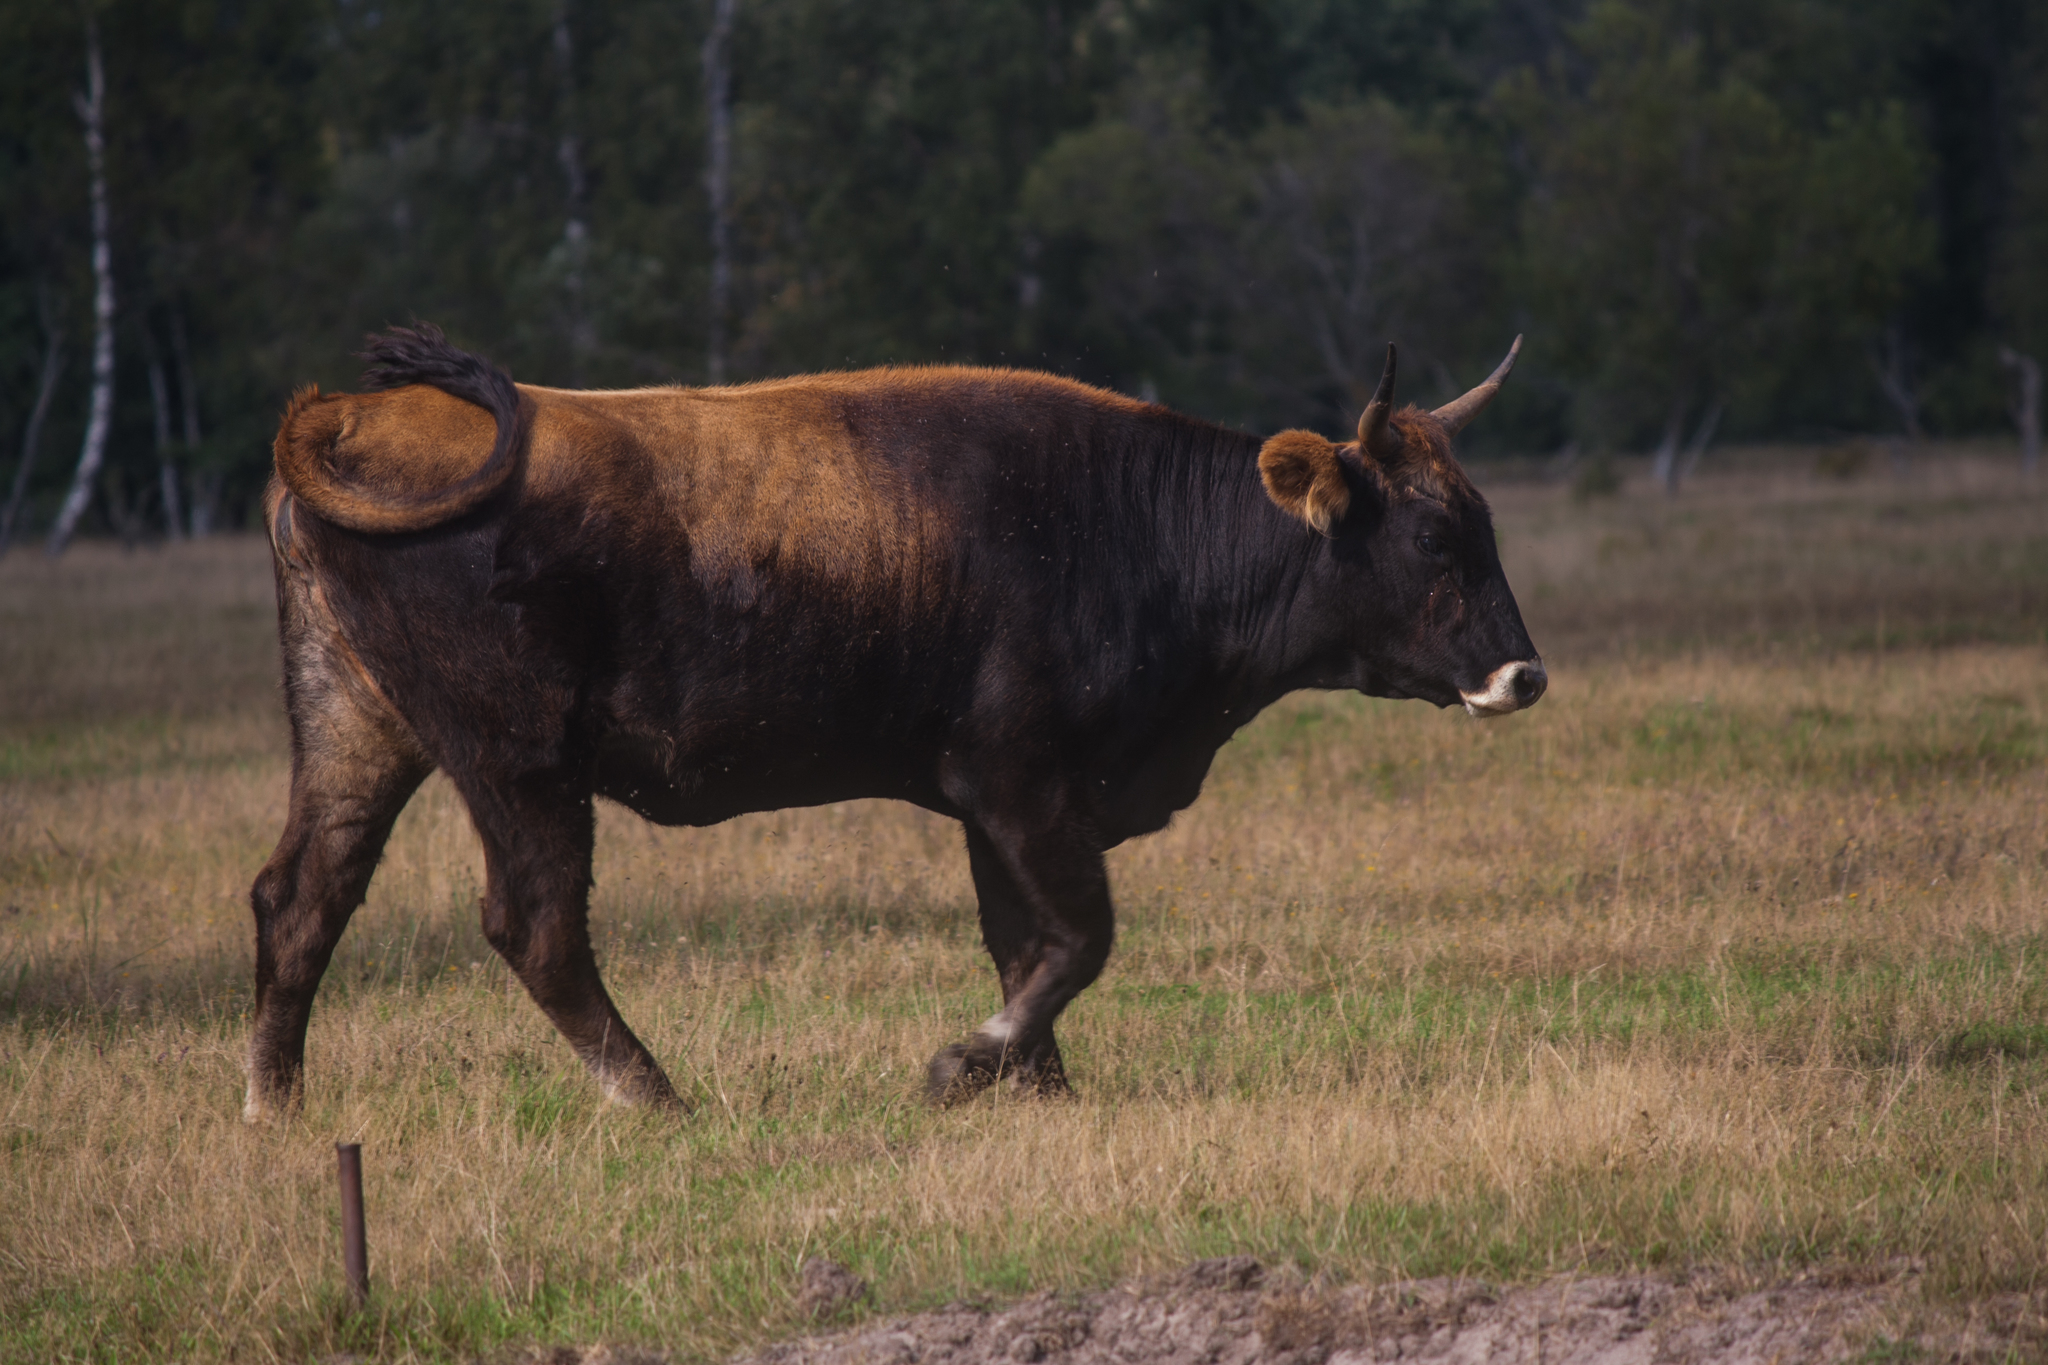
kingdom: Animalia
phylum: Chordata
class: Mammalia
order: Artiodactyla
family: Bovidae
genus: Bos
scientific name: Bos taurus
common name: Domesticated cattle
